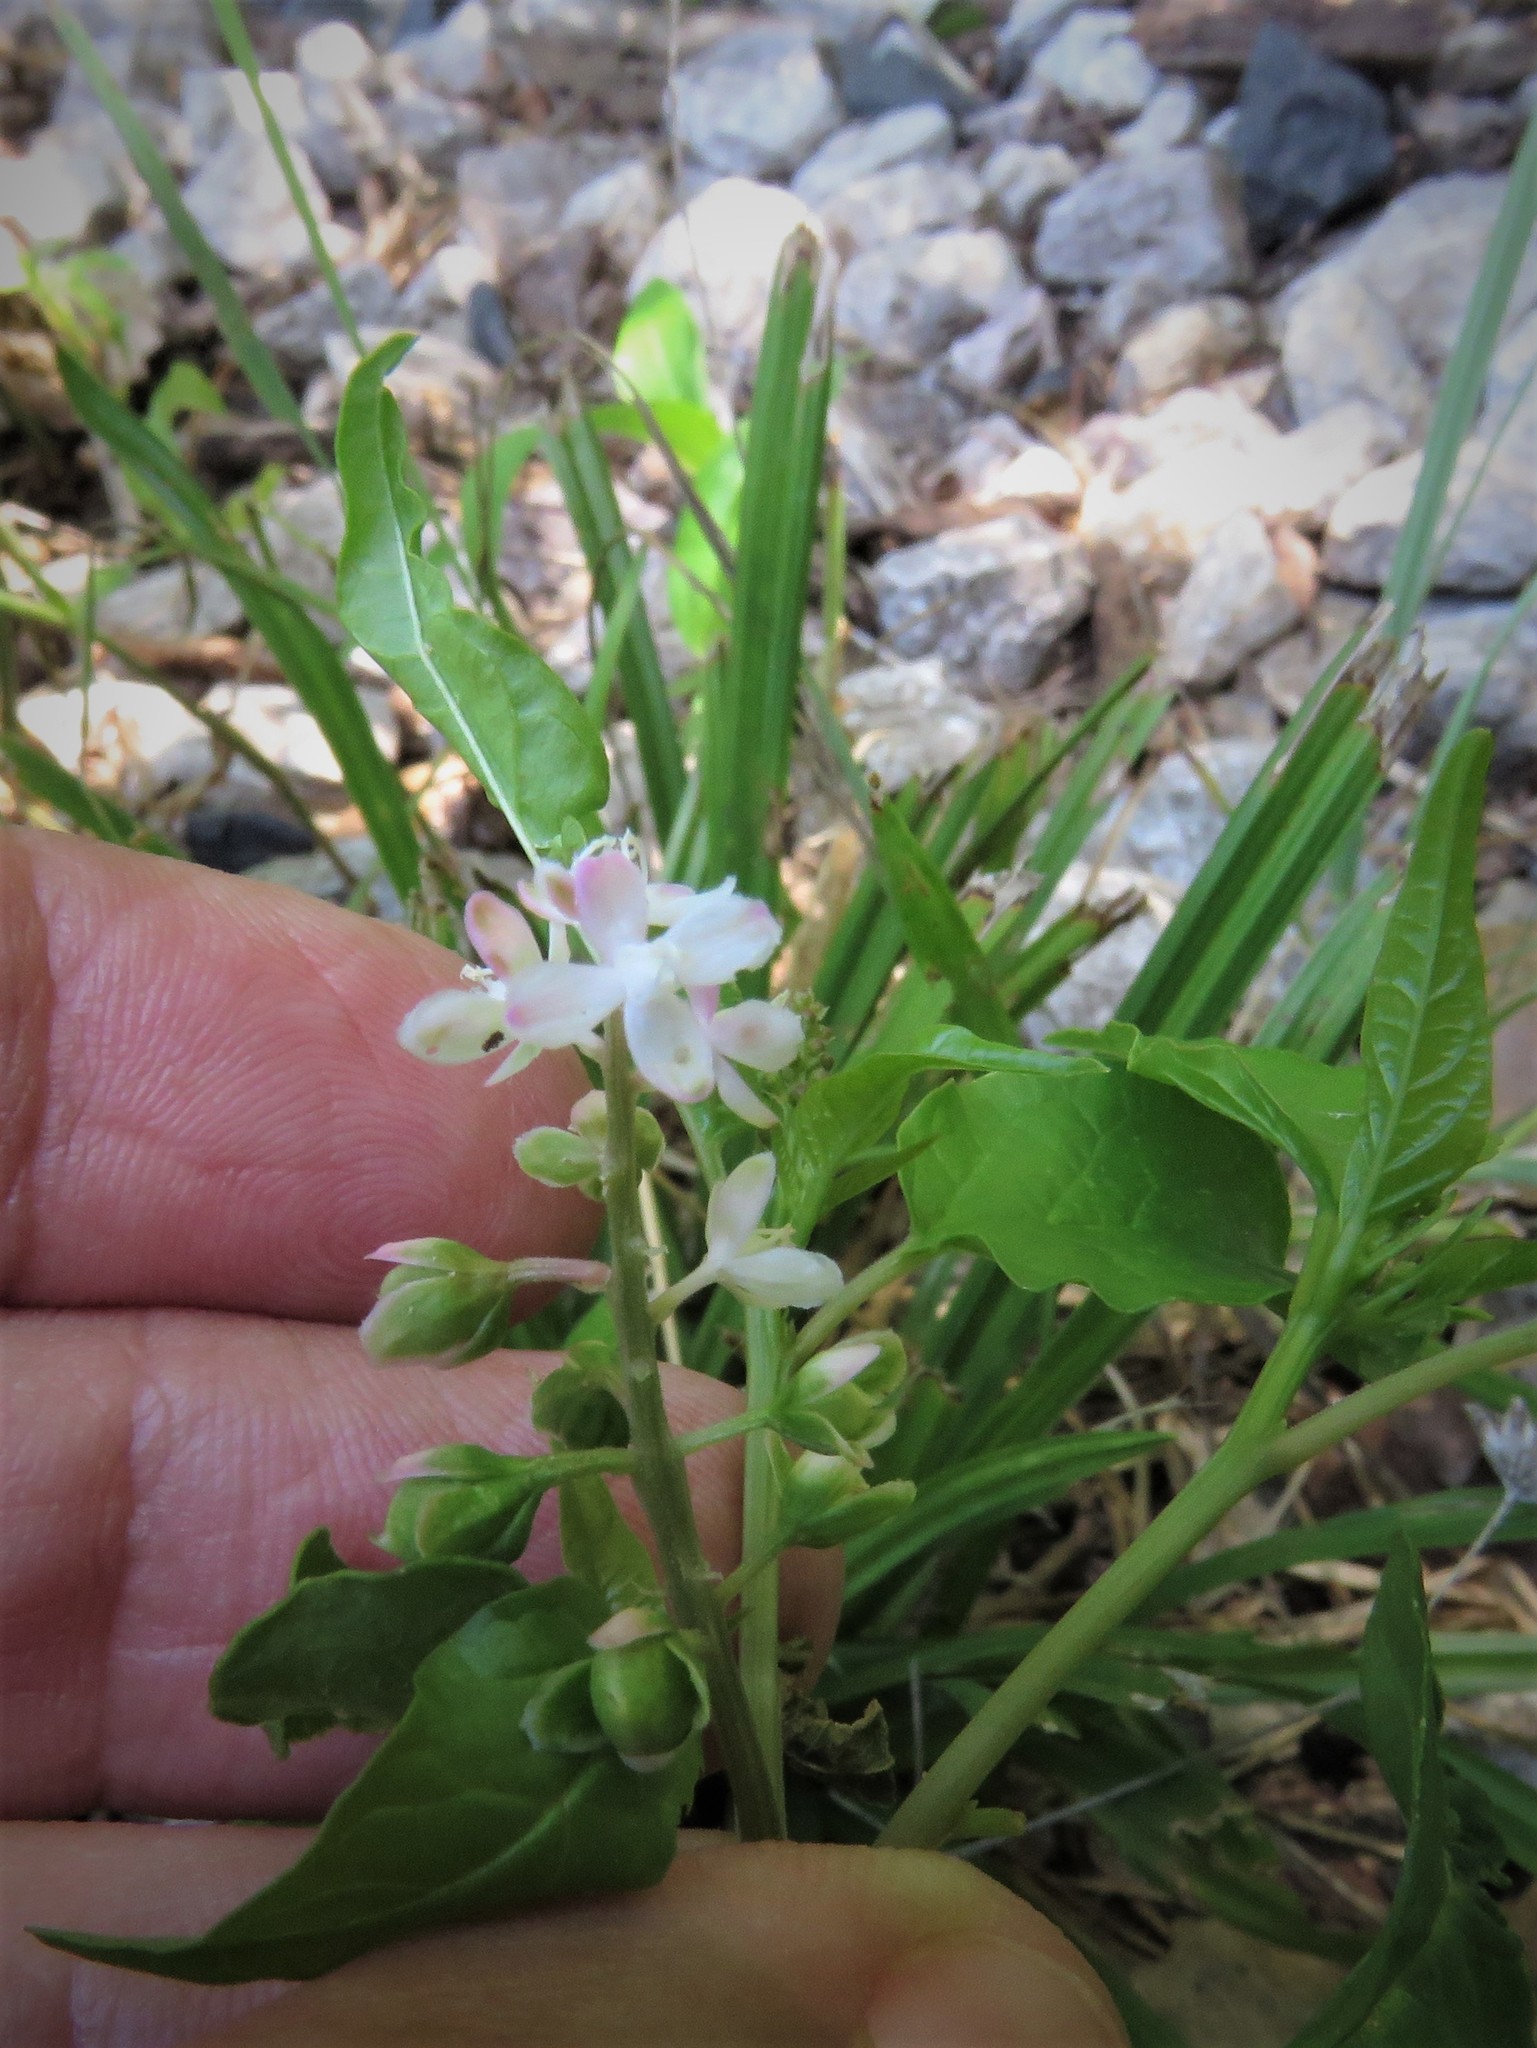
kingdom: Plantae
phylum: Tracheophyta
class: Magnoliopsida
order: Caryophyllales
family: Phytolaccaceae
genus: Rivina
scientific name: Rivina humilis
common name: Rougeplant
